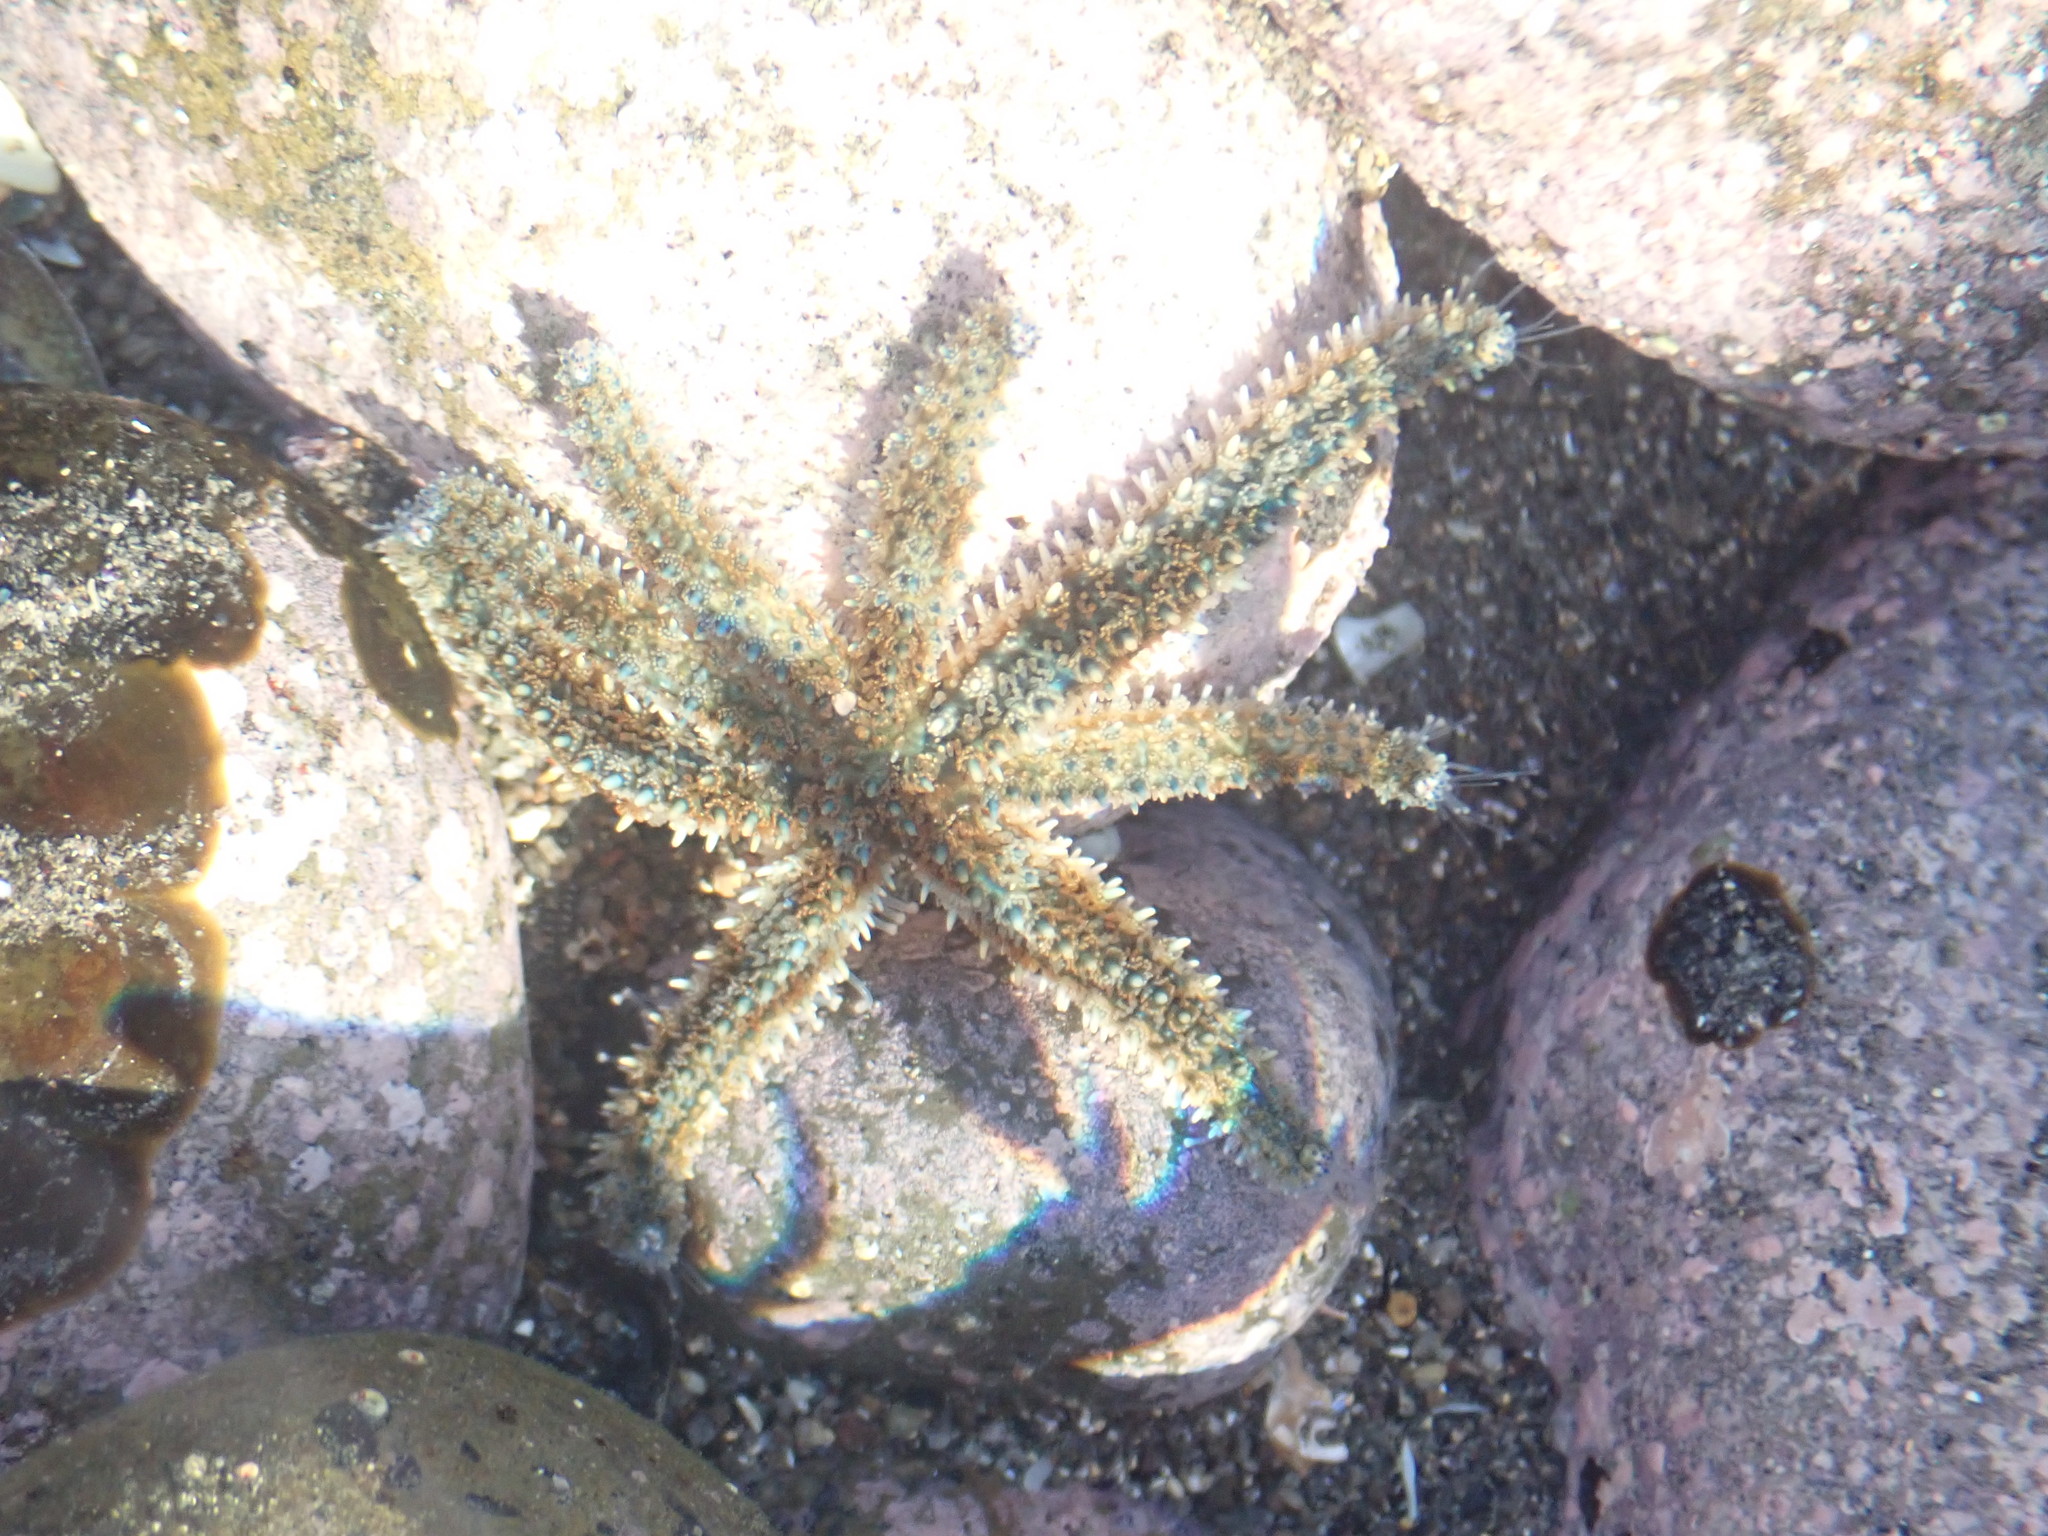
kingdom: Animalia
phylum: Echinodermata
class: Asteroidea
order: Forcipulatida
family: Asteriidae
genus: Coscinasterias
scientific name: Coscinasterias muricata
